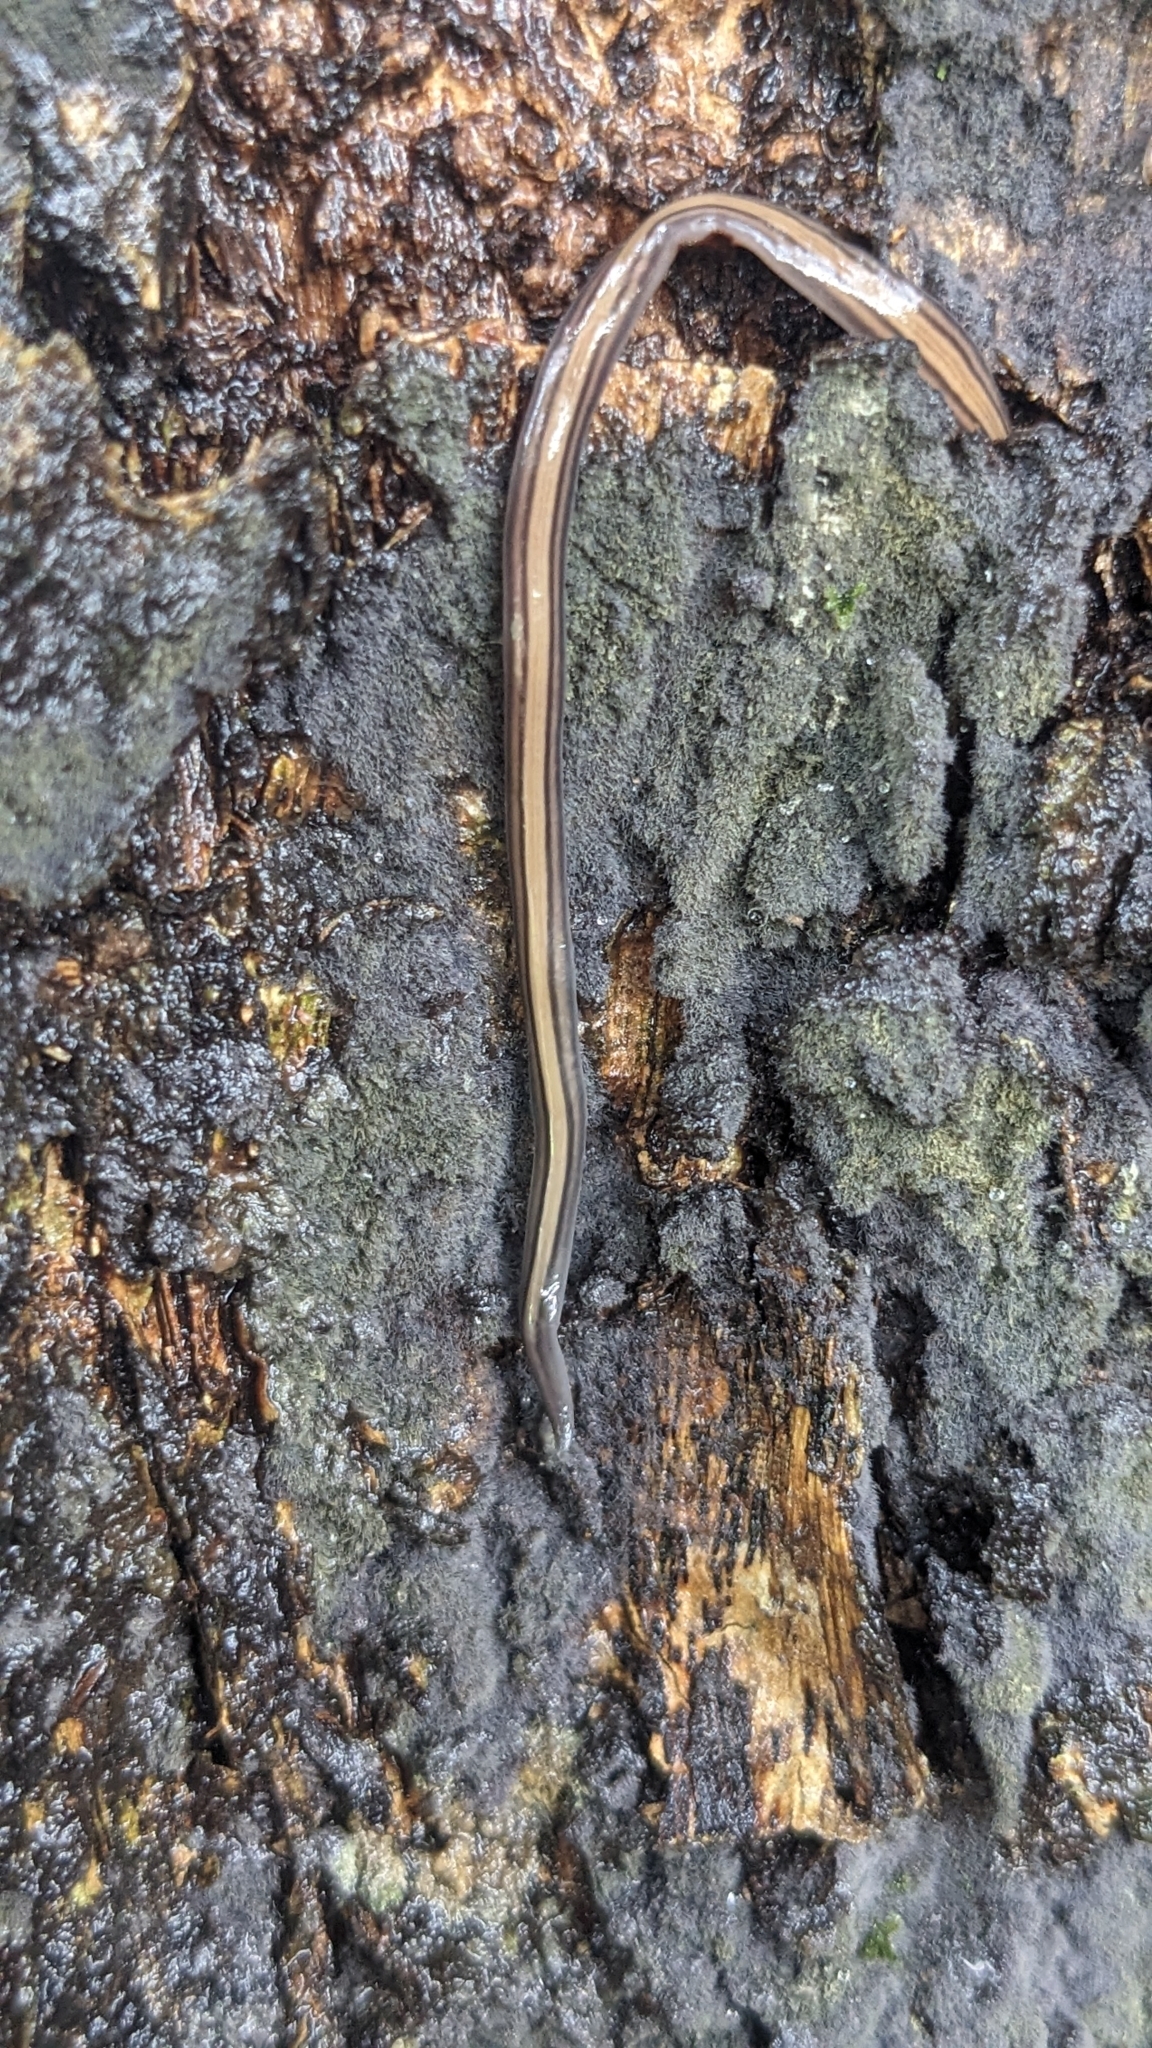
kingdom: Animalia
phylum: Platyhelminthes
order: Tricladida
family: Geoplanidae
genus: Dolichoplana
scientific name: Dolichoplana striata
